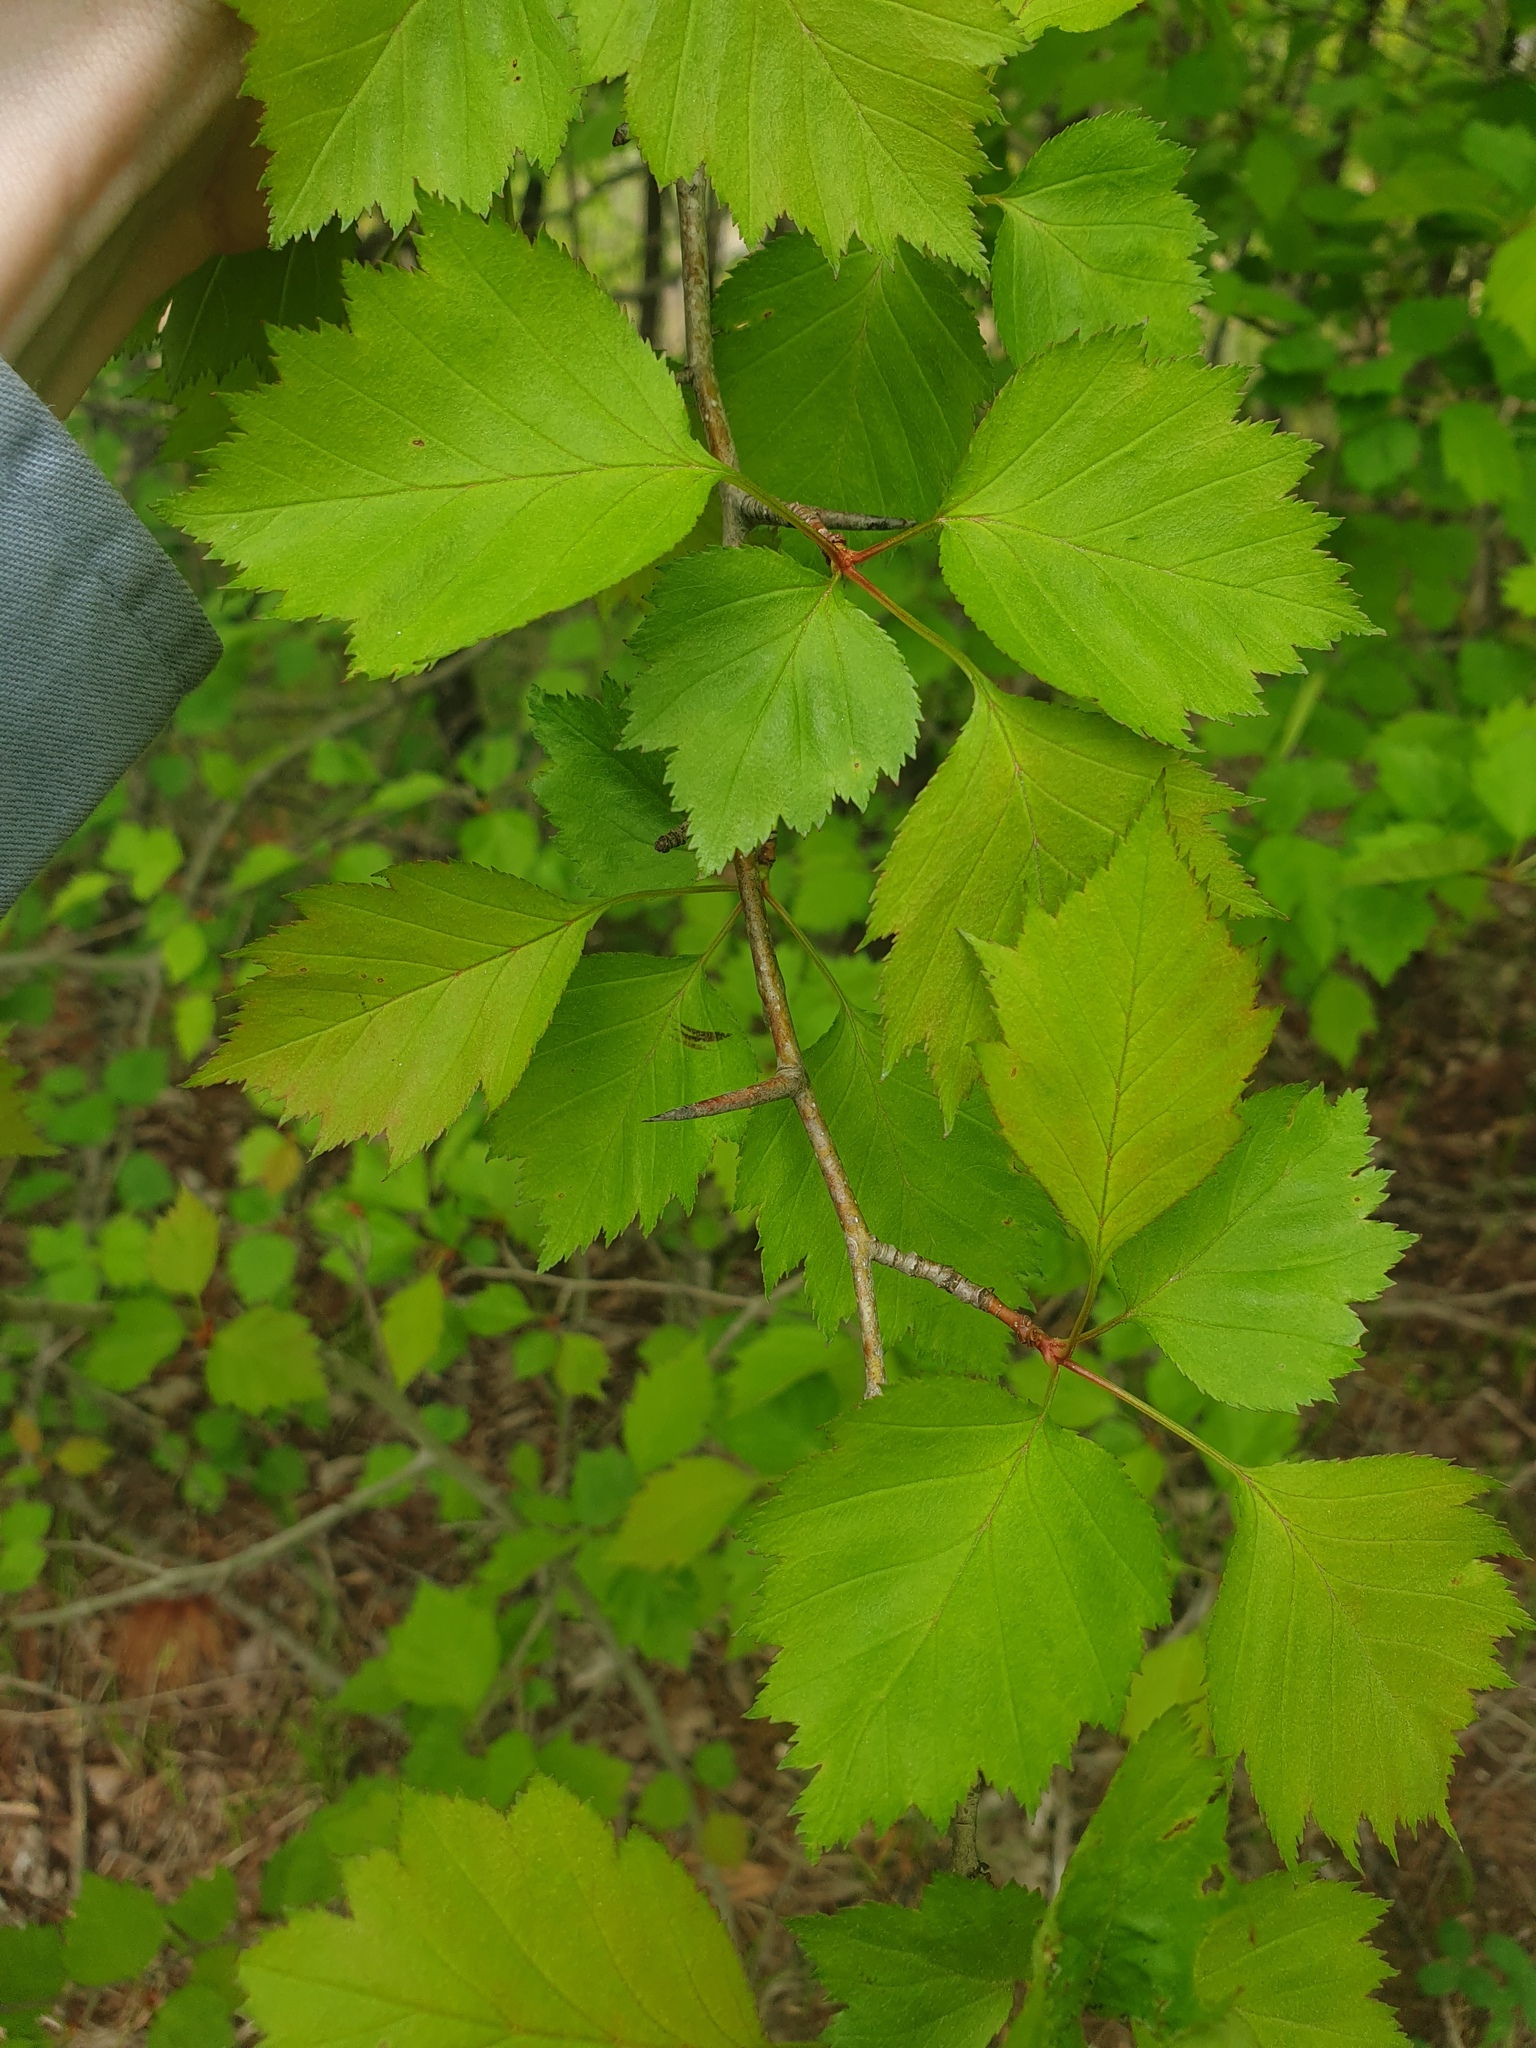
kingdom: Plantae
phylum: Tracheophyta
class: Magnoliopsida
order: Rosales
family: Rosaceae
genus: Crataegus
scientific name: Crataegus macrosperma
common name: Variable hawthorn
